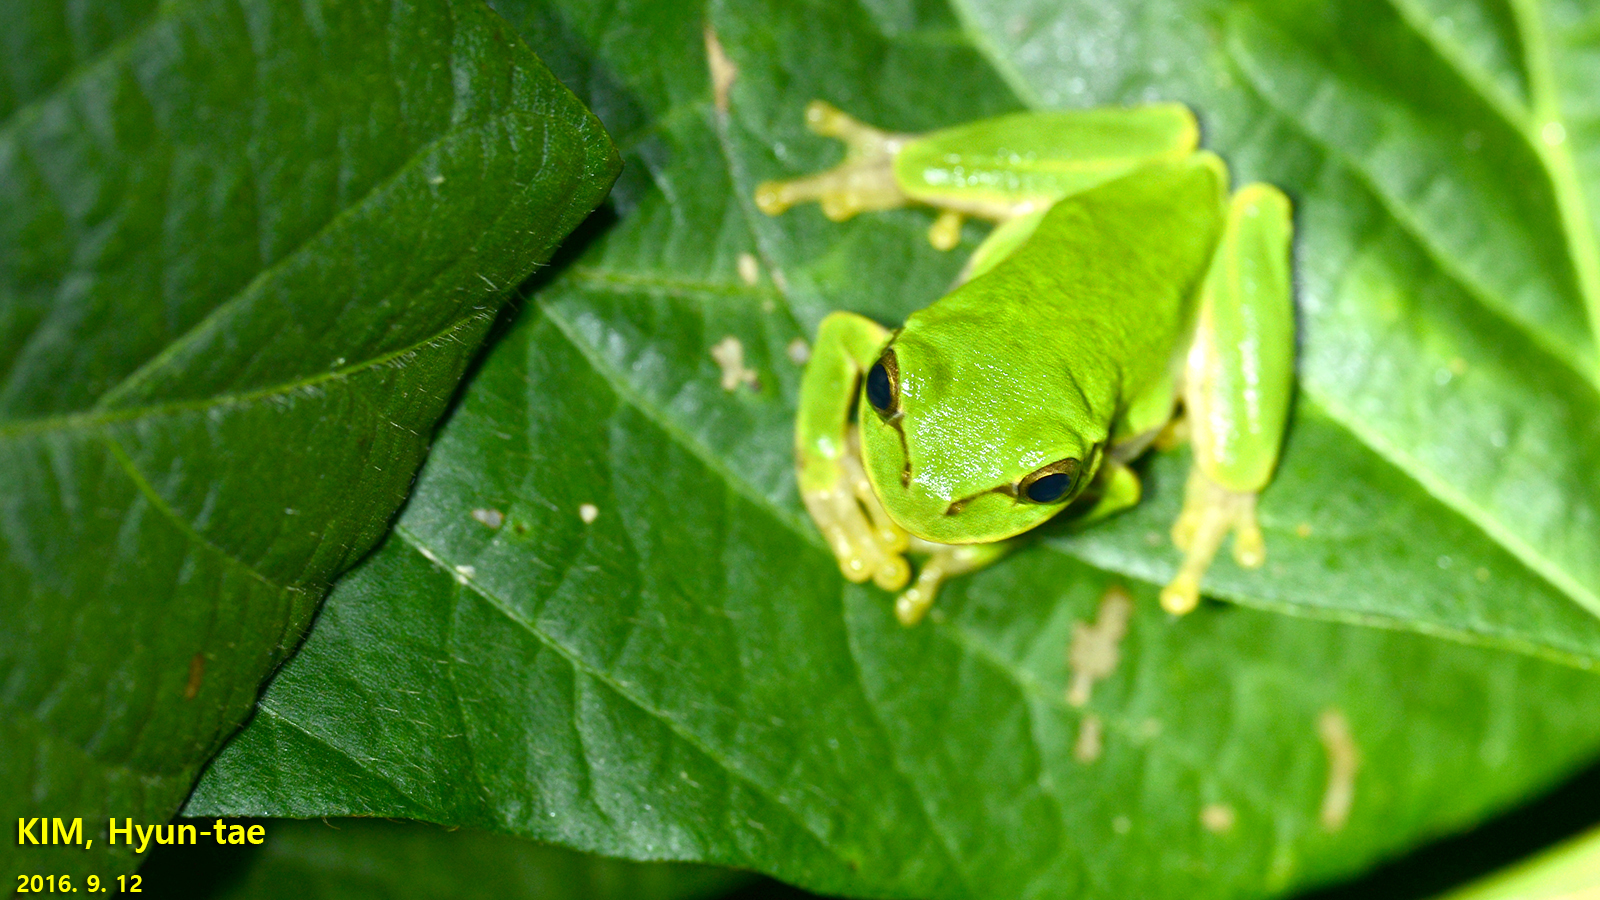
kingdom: Animalia
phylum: Chordata
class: Amphibia
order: Anura
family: Hylidae
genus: Dryophytes
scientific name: Dryophytes japonicus
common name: Japanese treefrog
